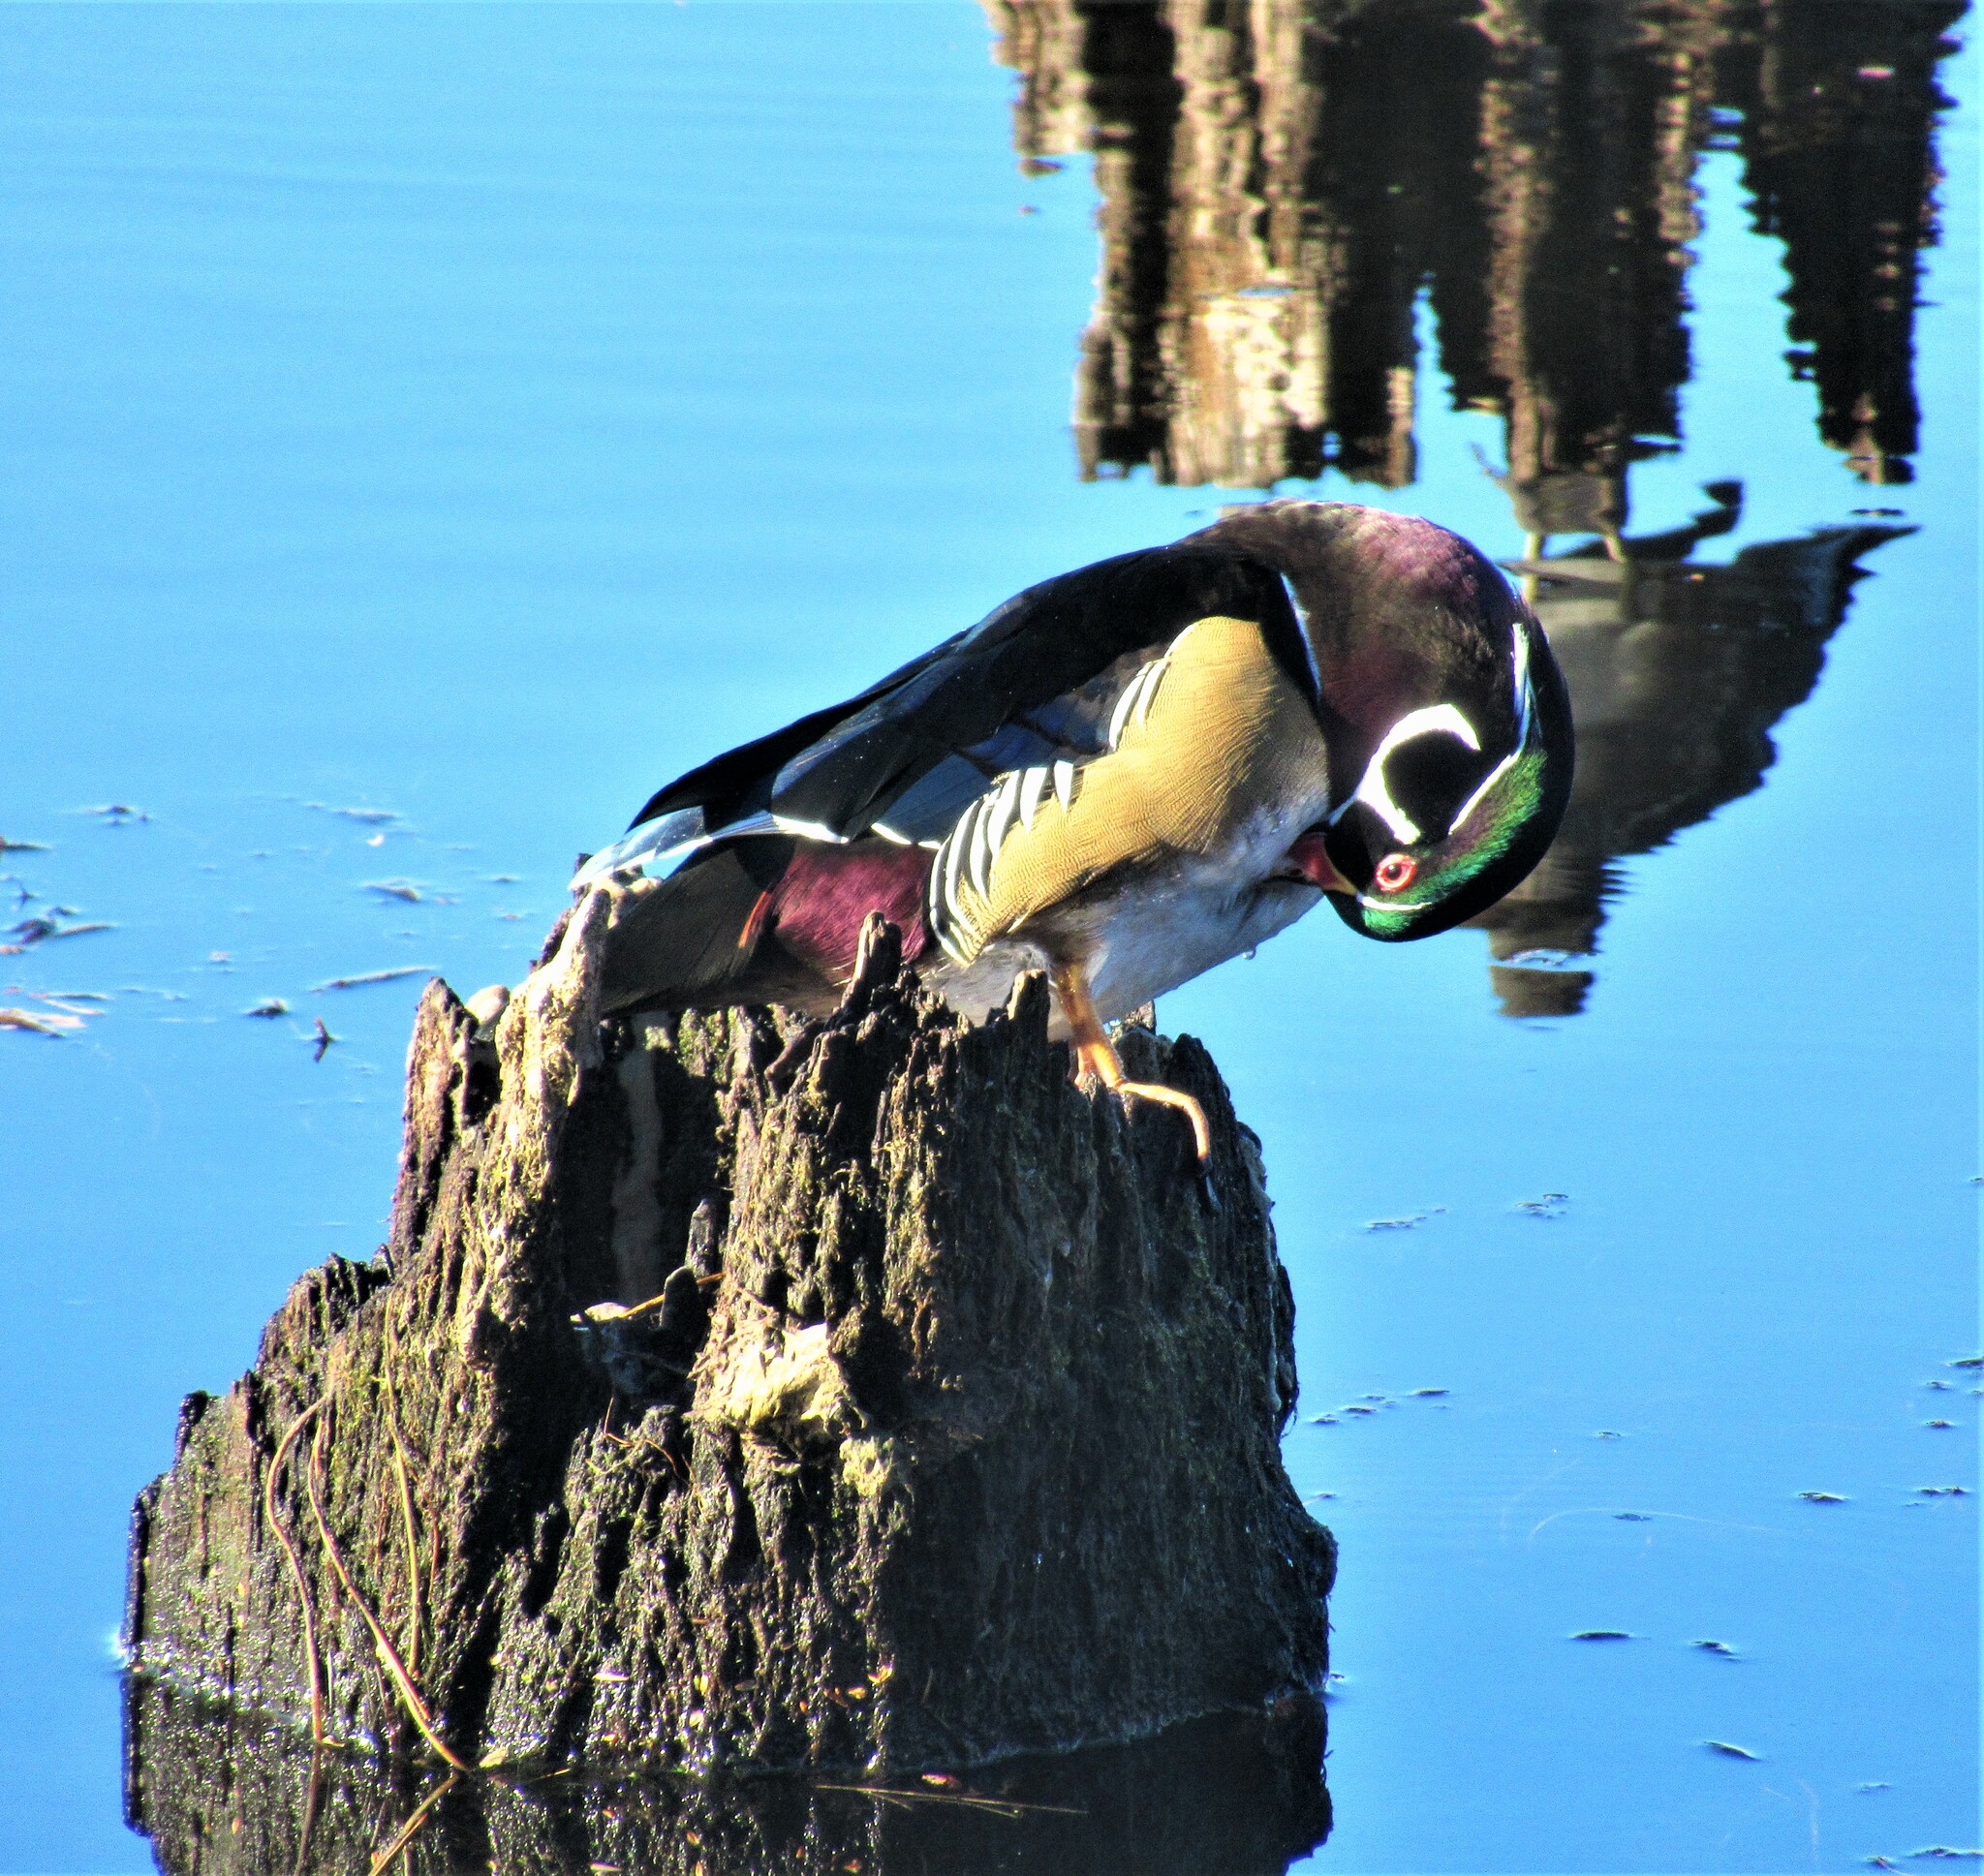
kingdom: Animalia
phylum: Chordata
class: Aves
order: Anseriformes
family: Anatidae
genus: Aix
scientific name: Aix sponsa
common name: Wood duck
